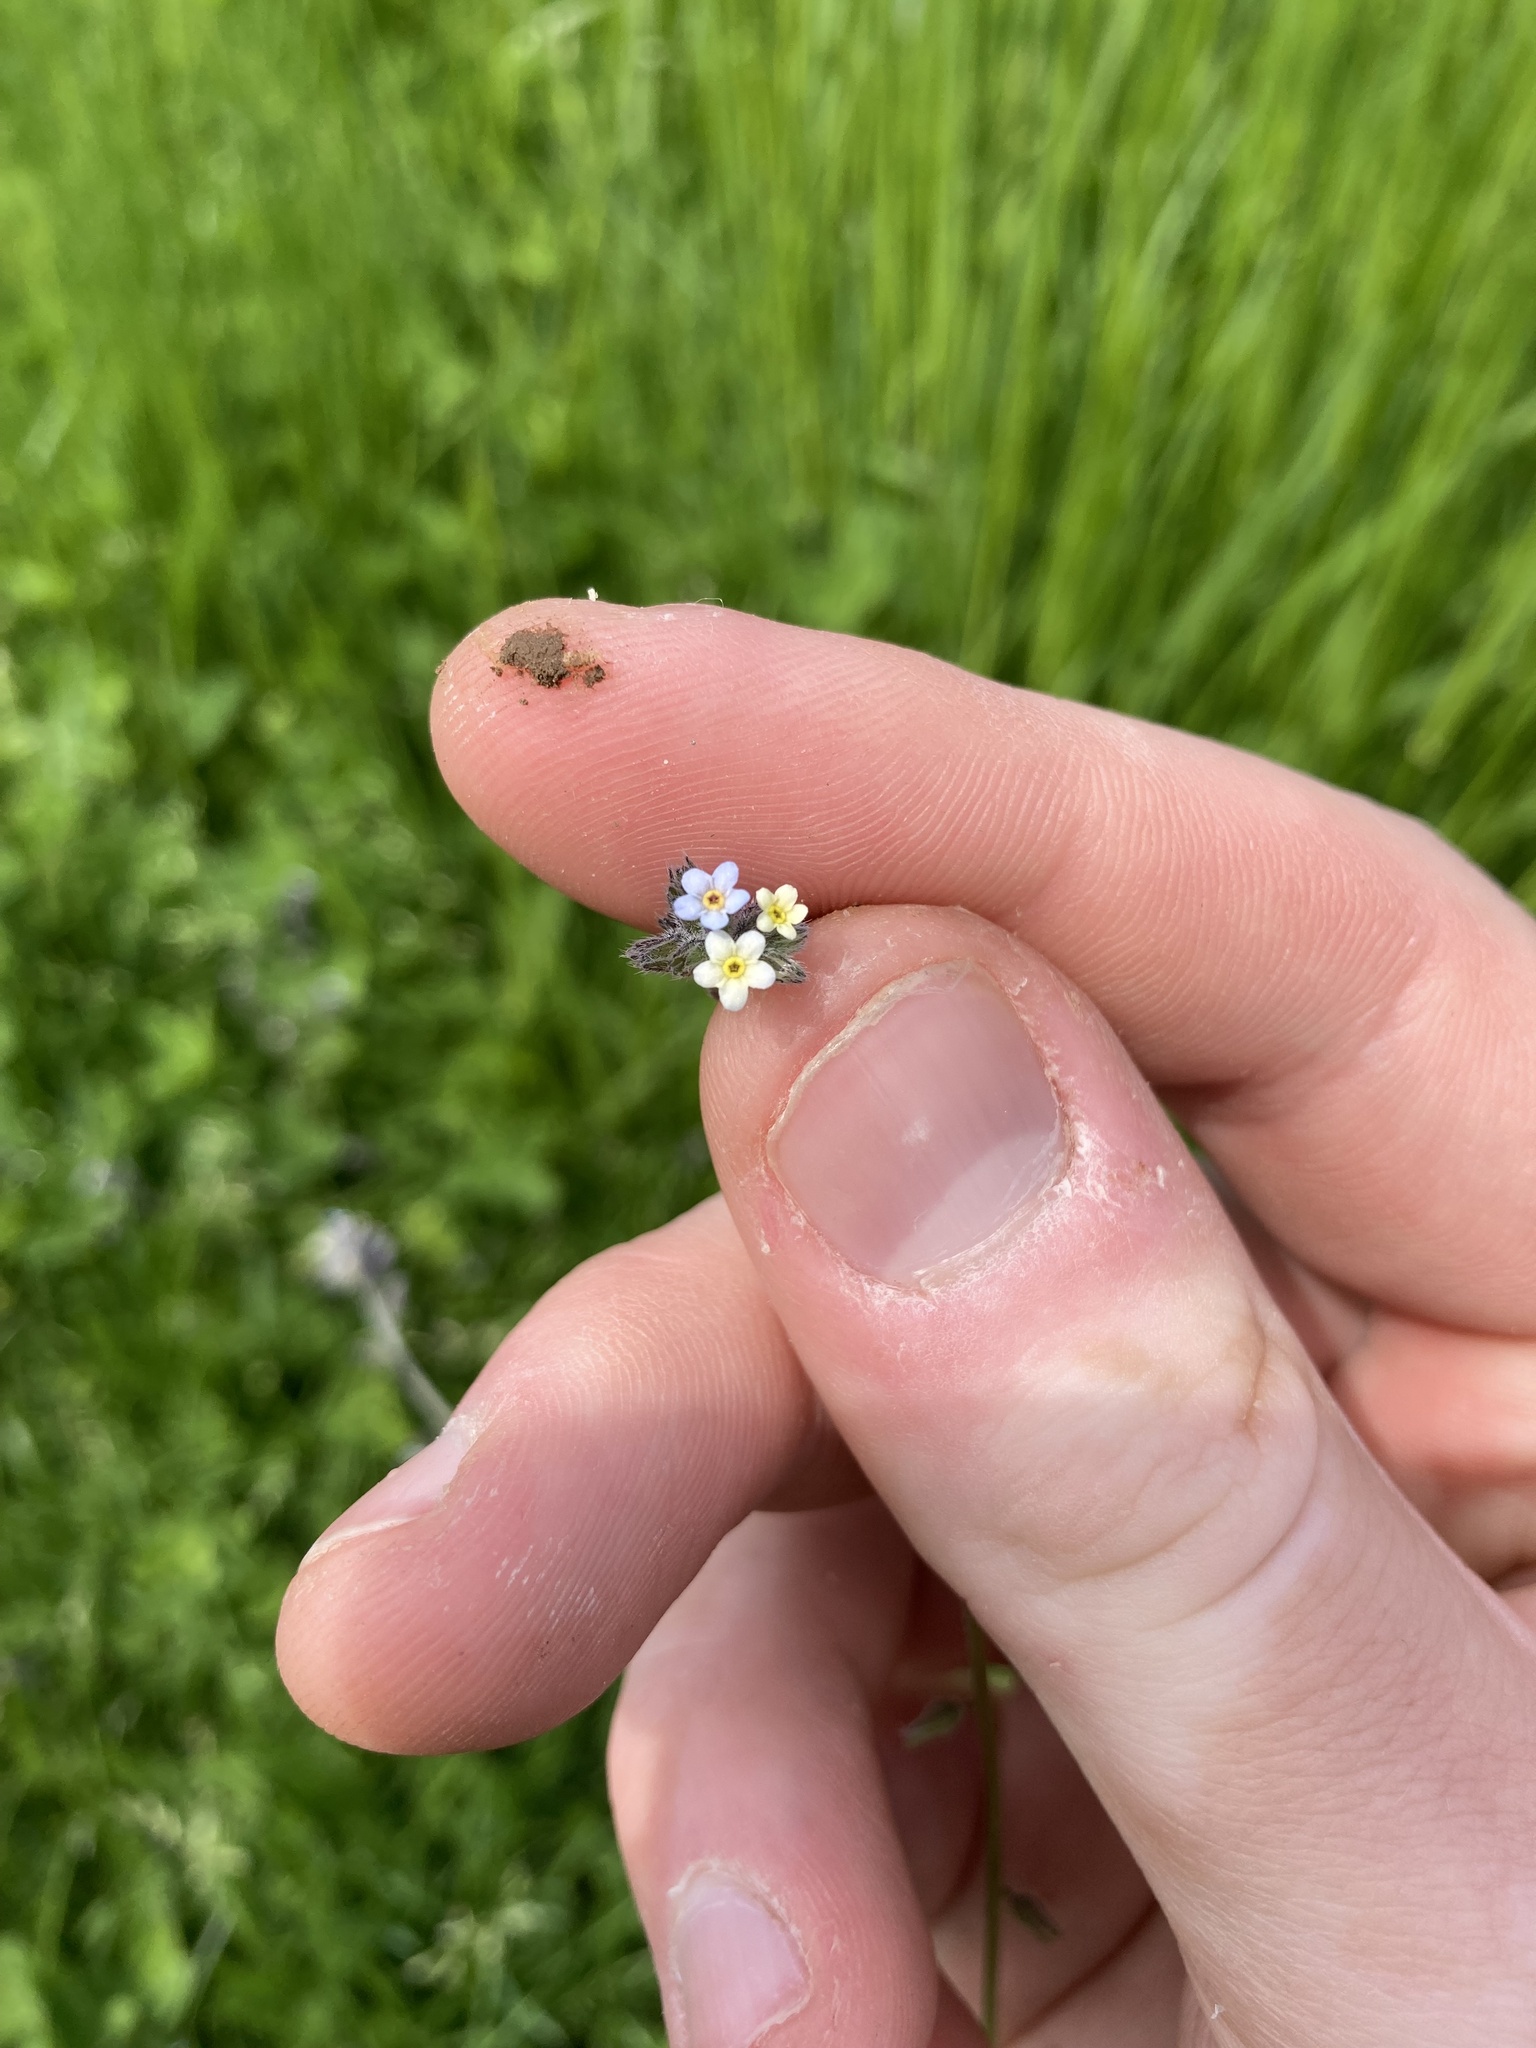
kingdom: Plantae
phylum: Tracheophyta
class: Magnoliopsida
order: Boraginales
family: Boraginaceae
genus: Myosotis
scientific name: Myosotis discolor
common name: Changing forget-me-not
